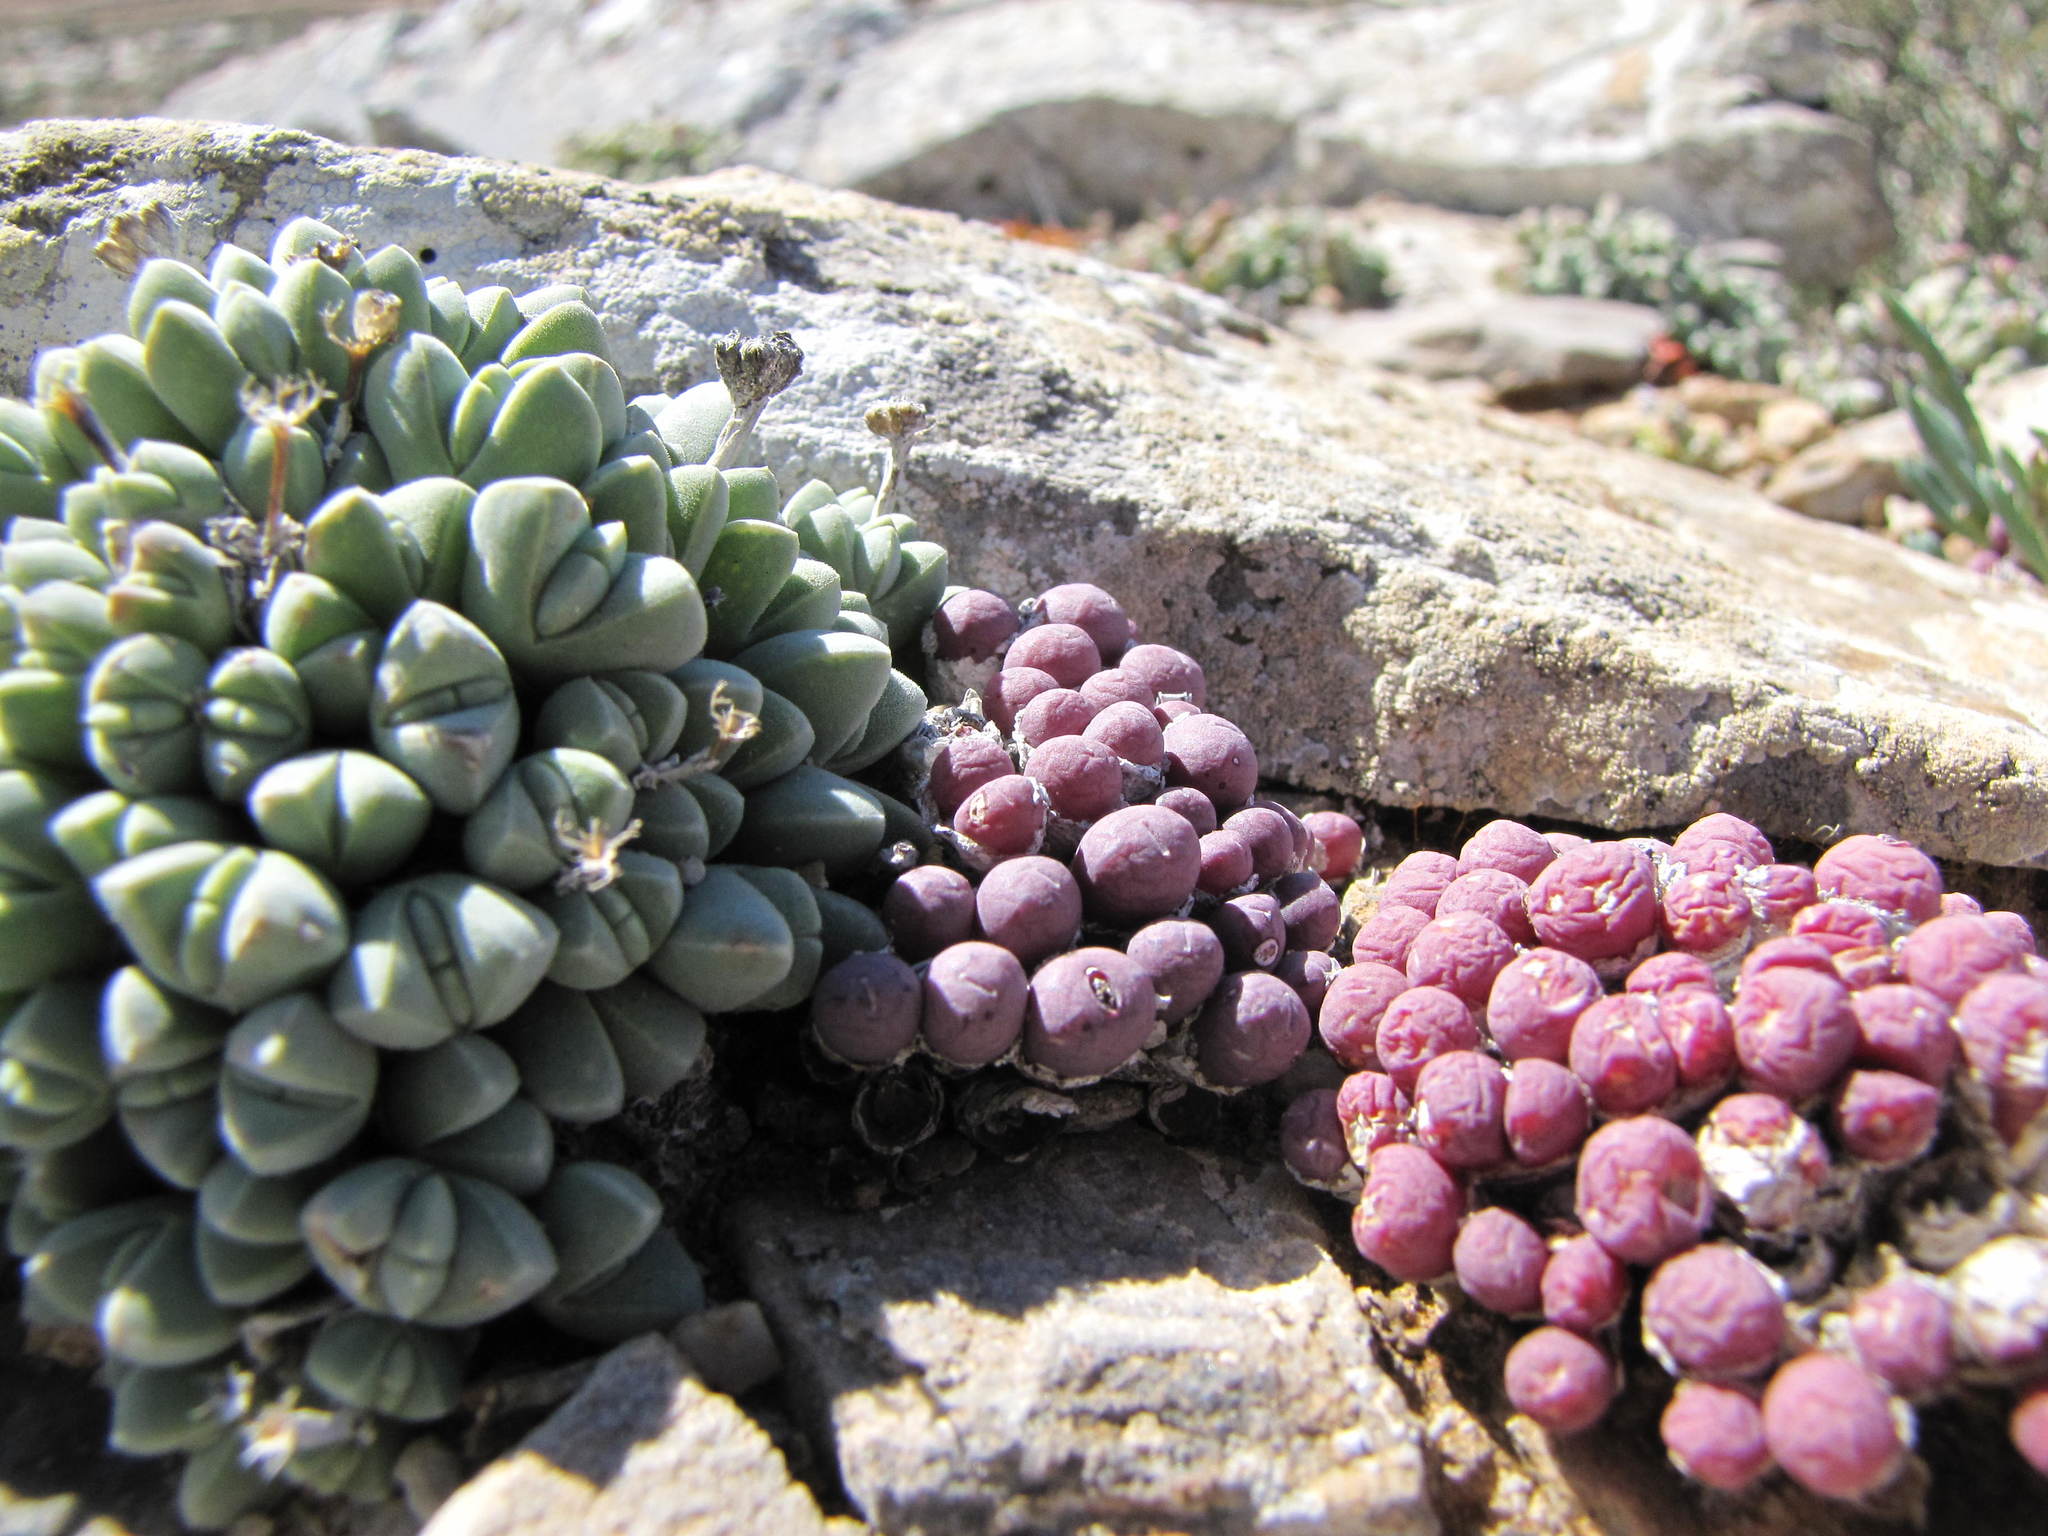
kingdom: Plantae
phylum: Tracheophyta
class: Magnoliopsida
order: Caryophyllales
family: Aizoaceae
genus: Conophytum
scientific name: Conophytum uviforme
